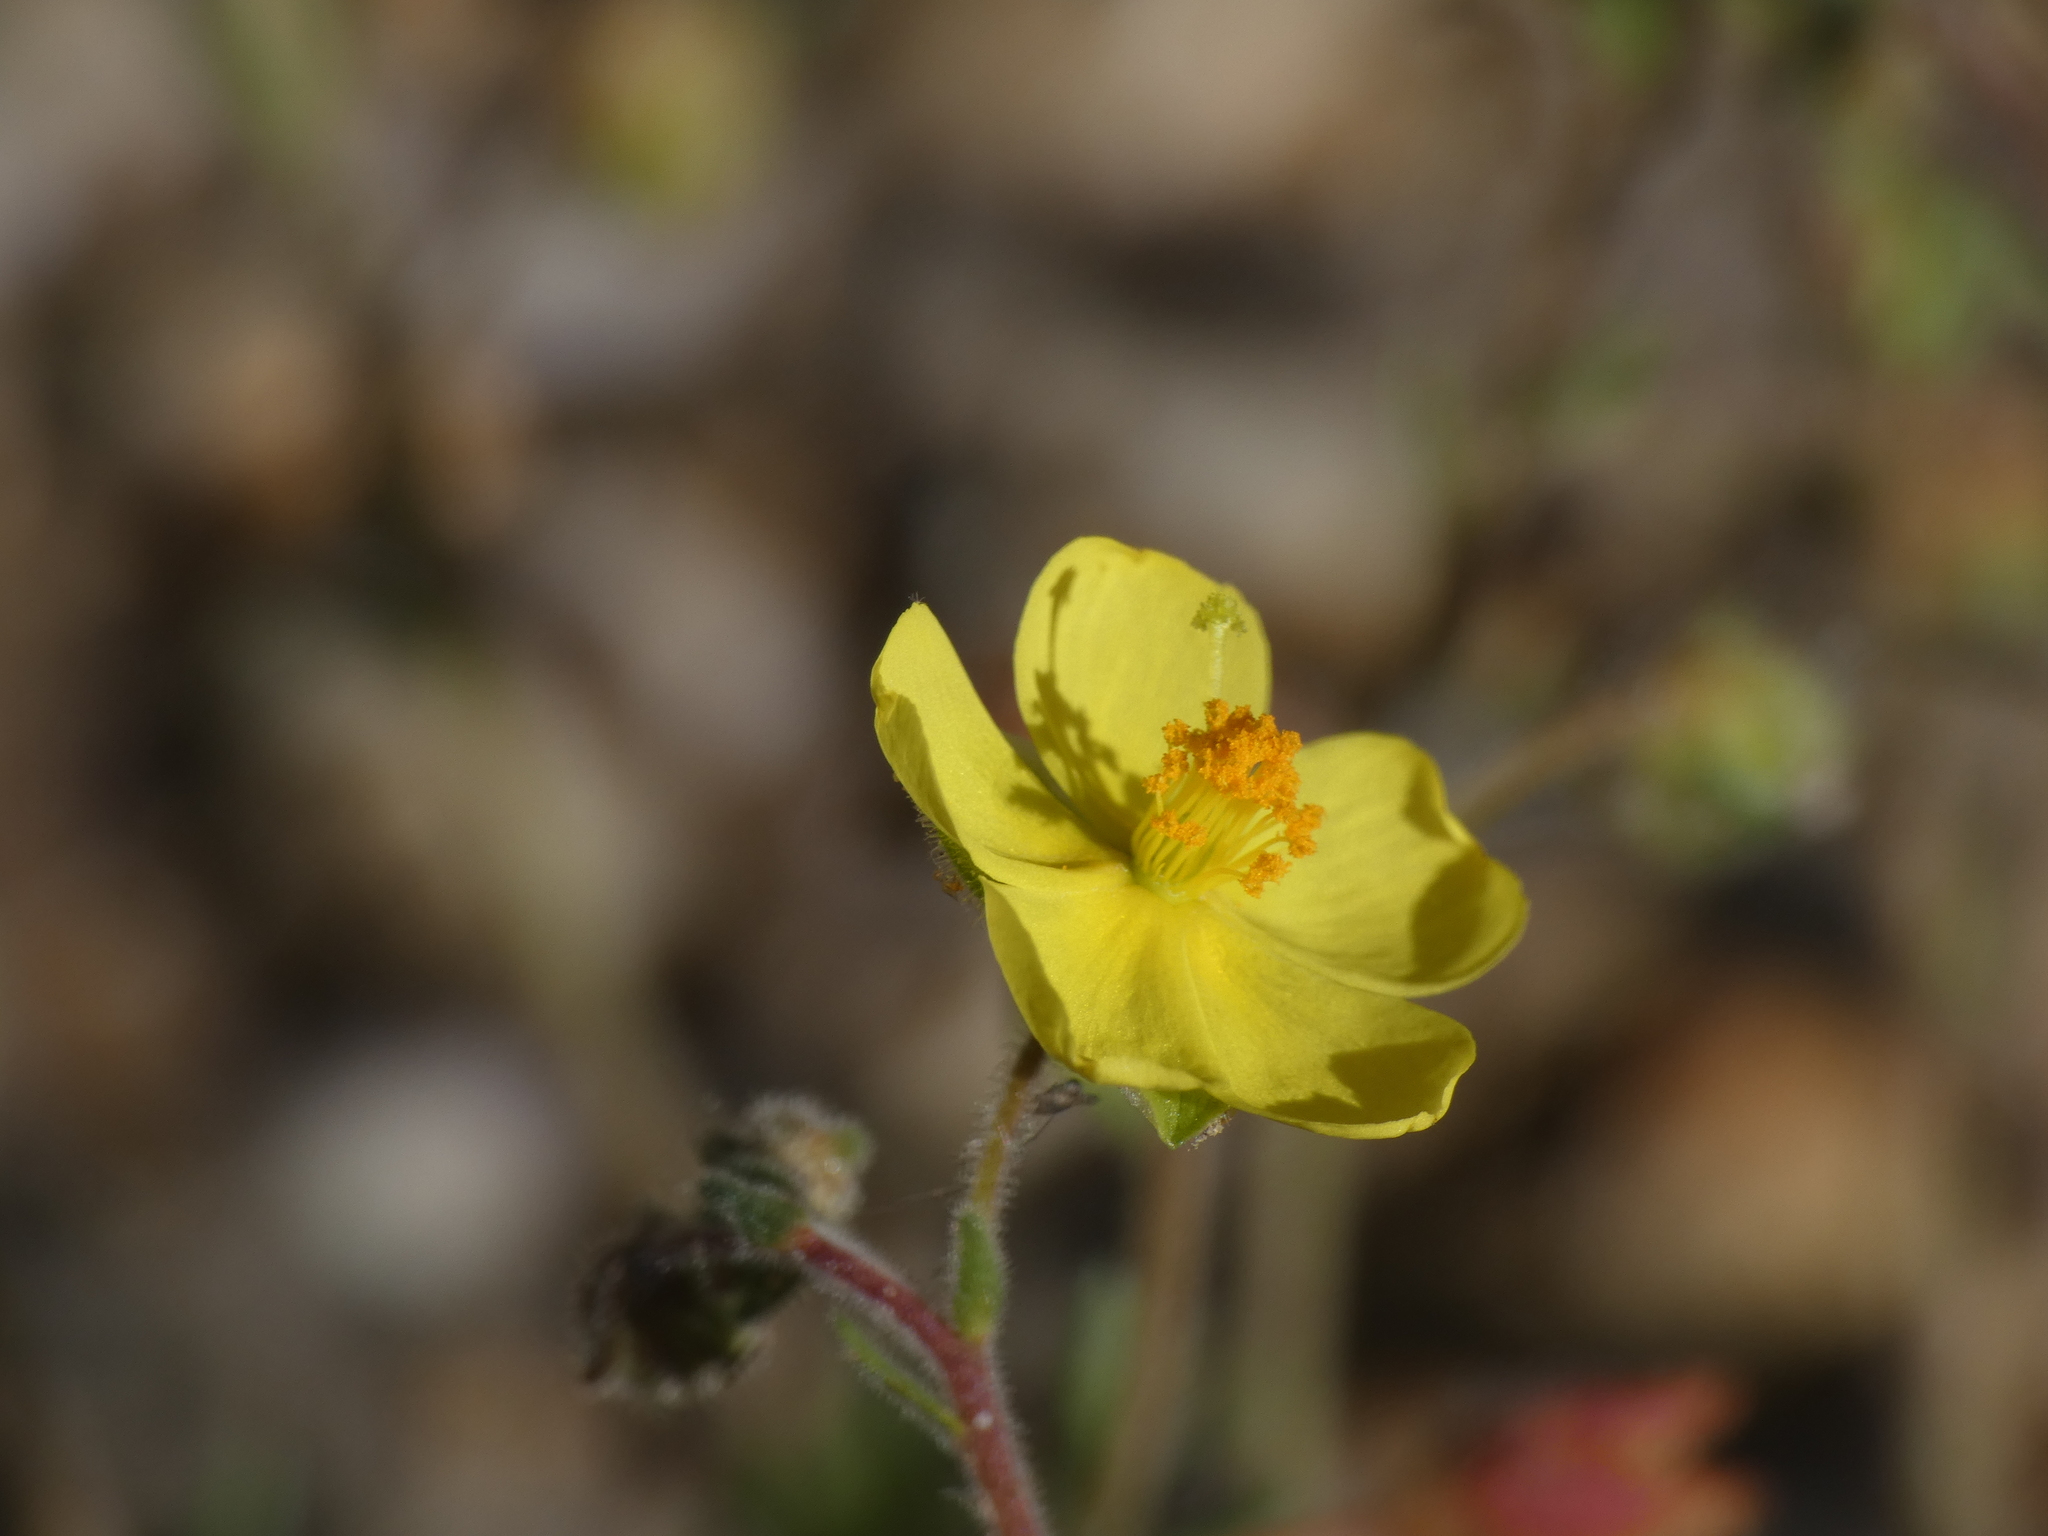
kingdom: Plantae
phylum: Tracheophyta
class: Magnoliopsida
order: Malvales
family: Cistaceae
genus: Fumana
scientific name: Fumana juniperina
